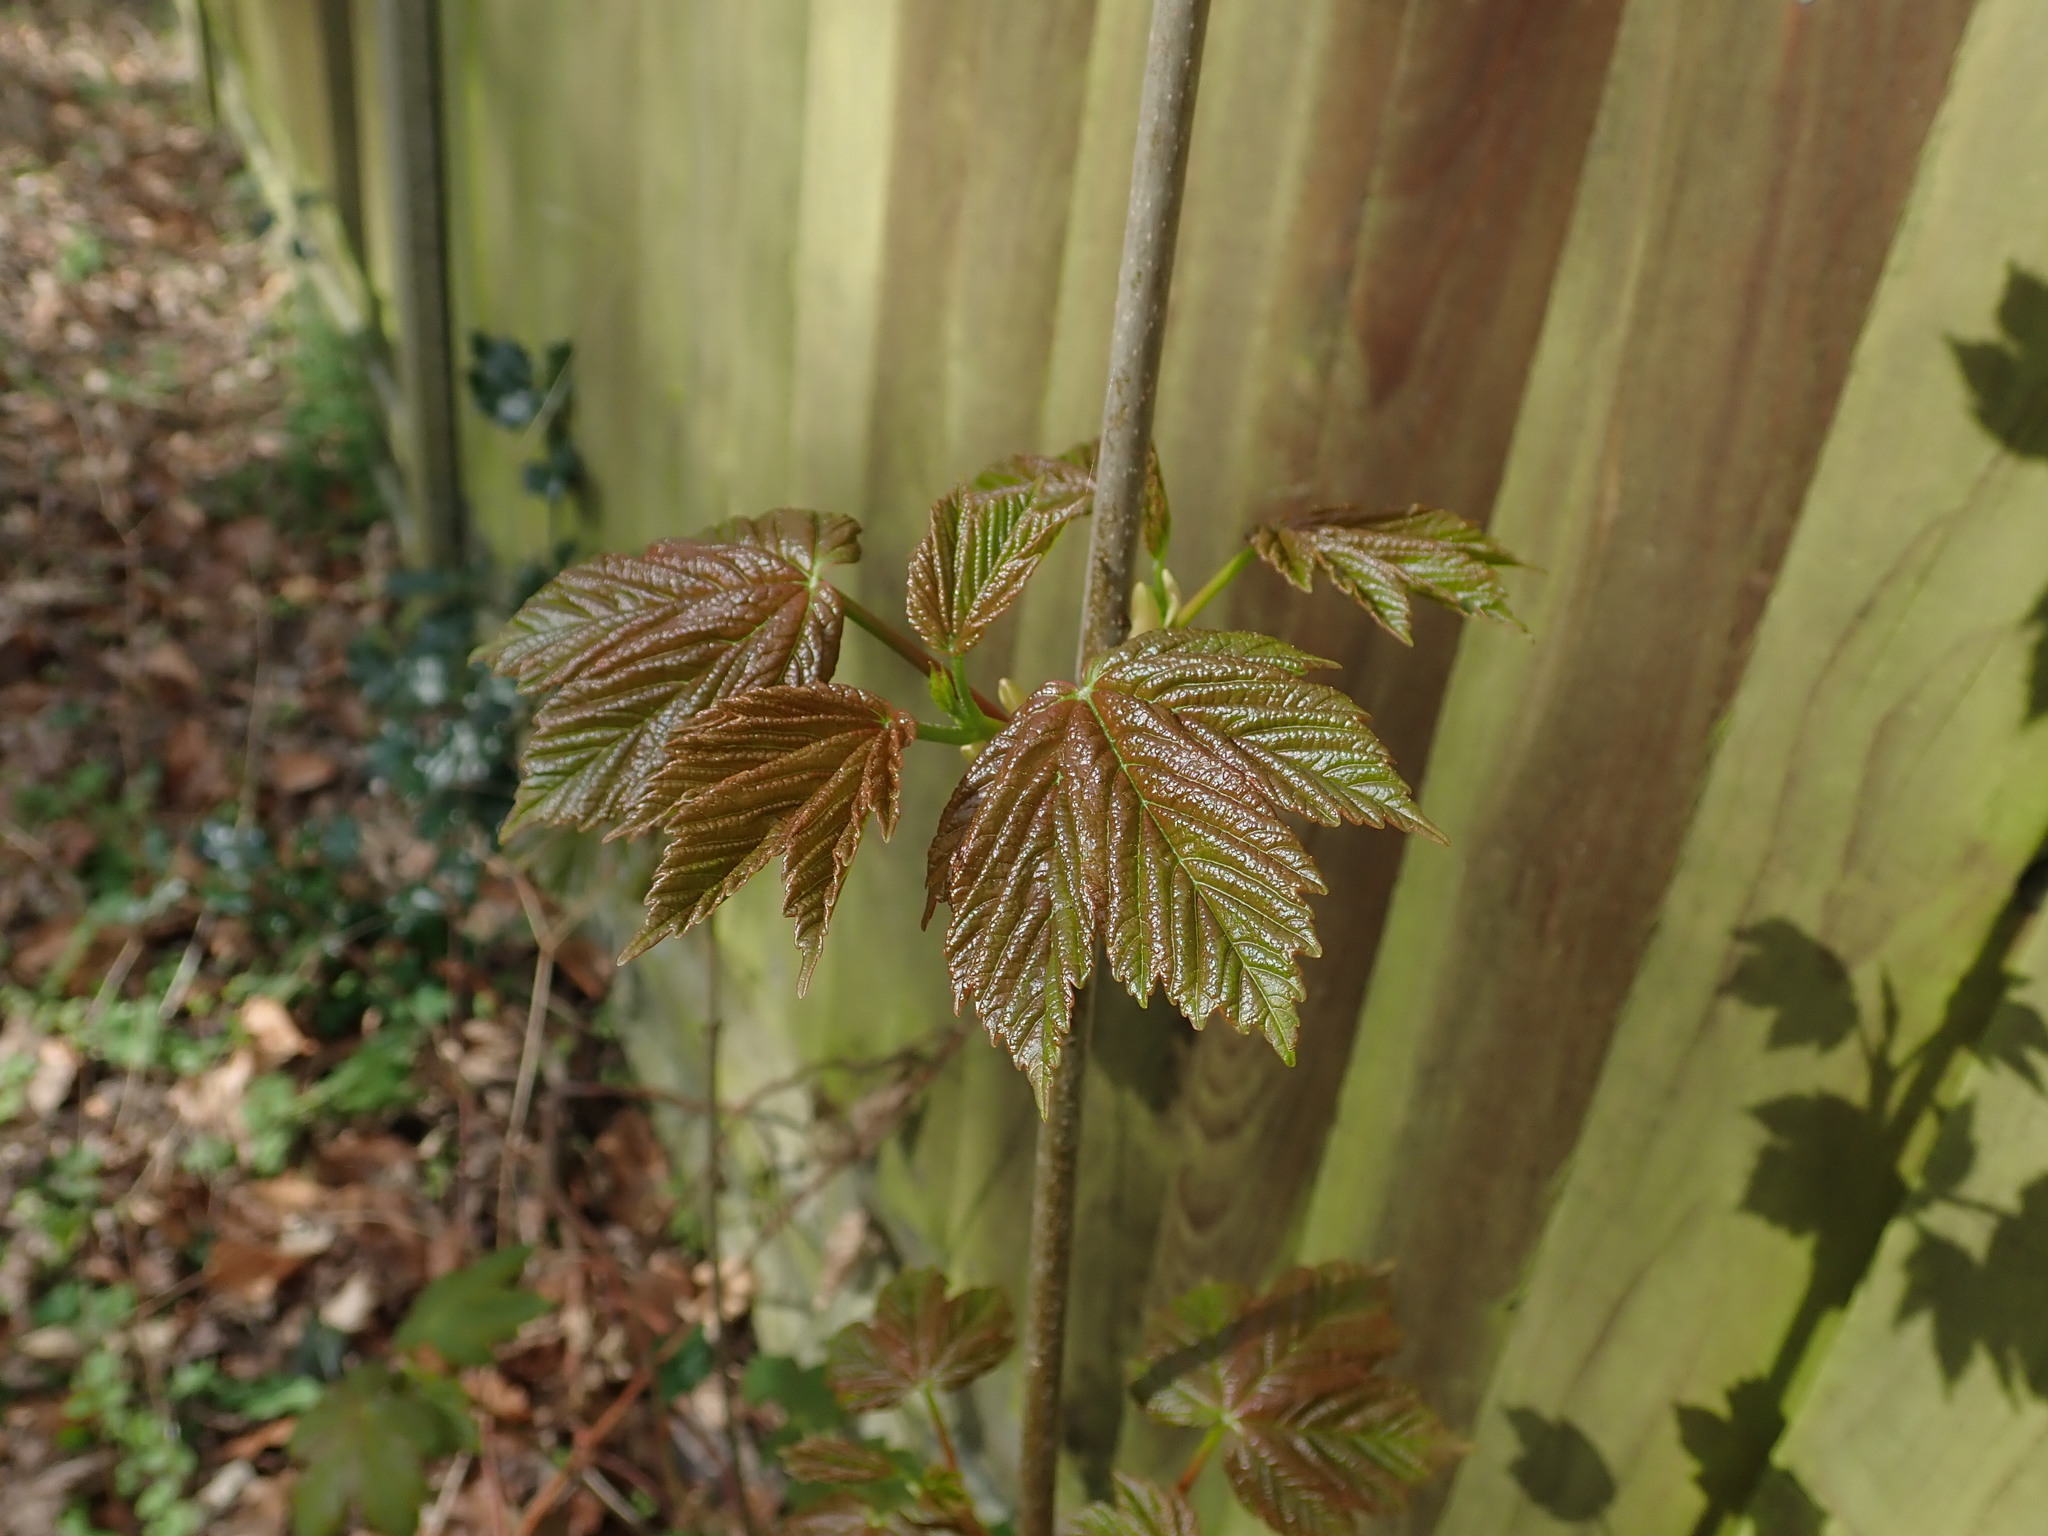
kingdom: Plantae
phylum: Tracheophyta
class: Magnoliopsida
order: Sapindales
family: Sapindaceae
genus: Acer
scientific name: Acer pseudoplatanus
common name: Sycamore
